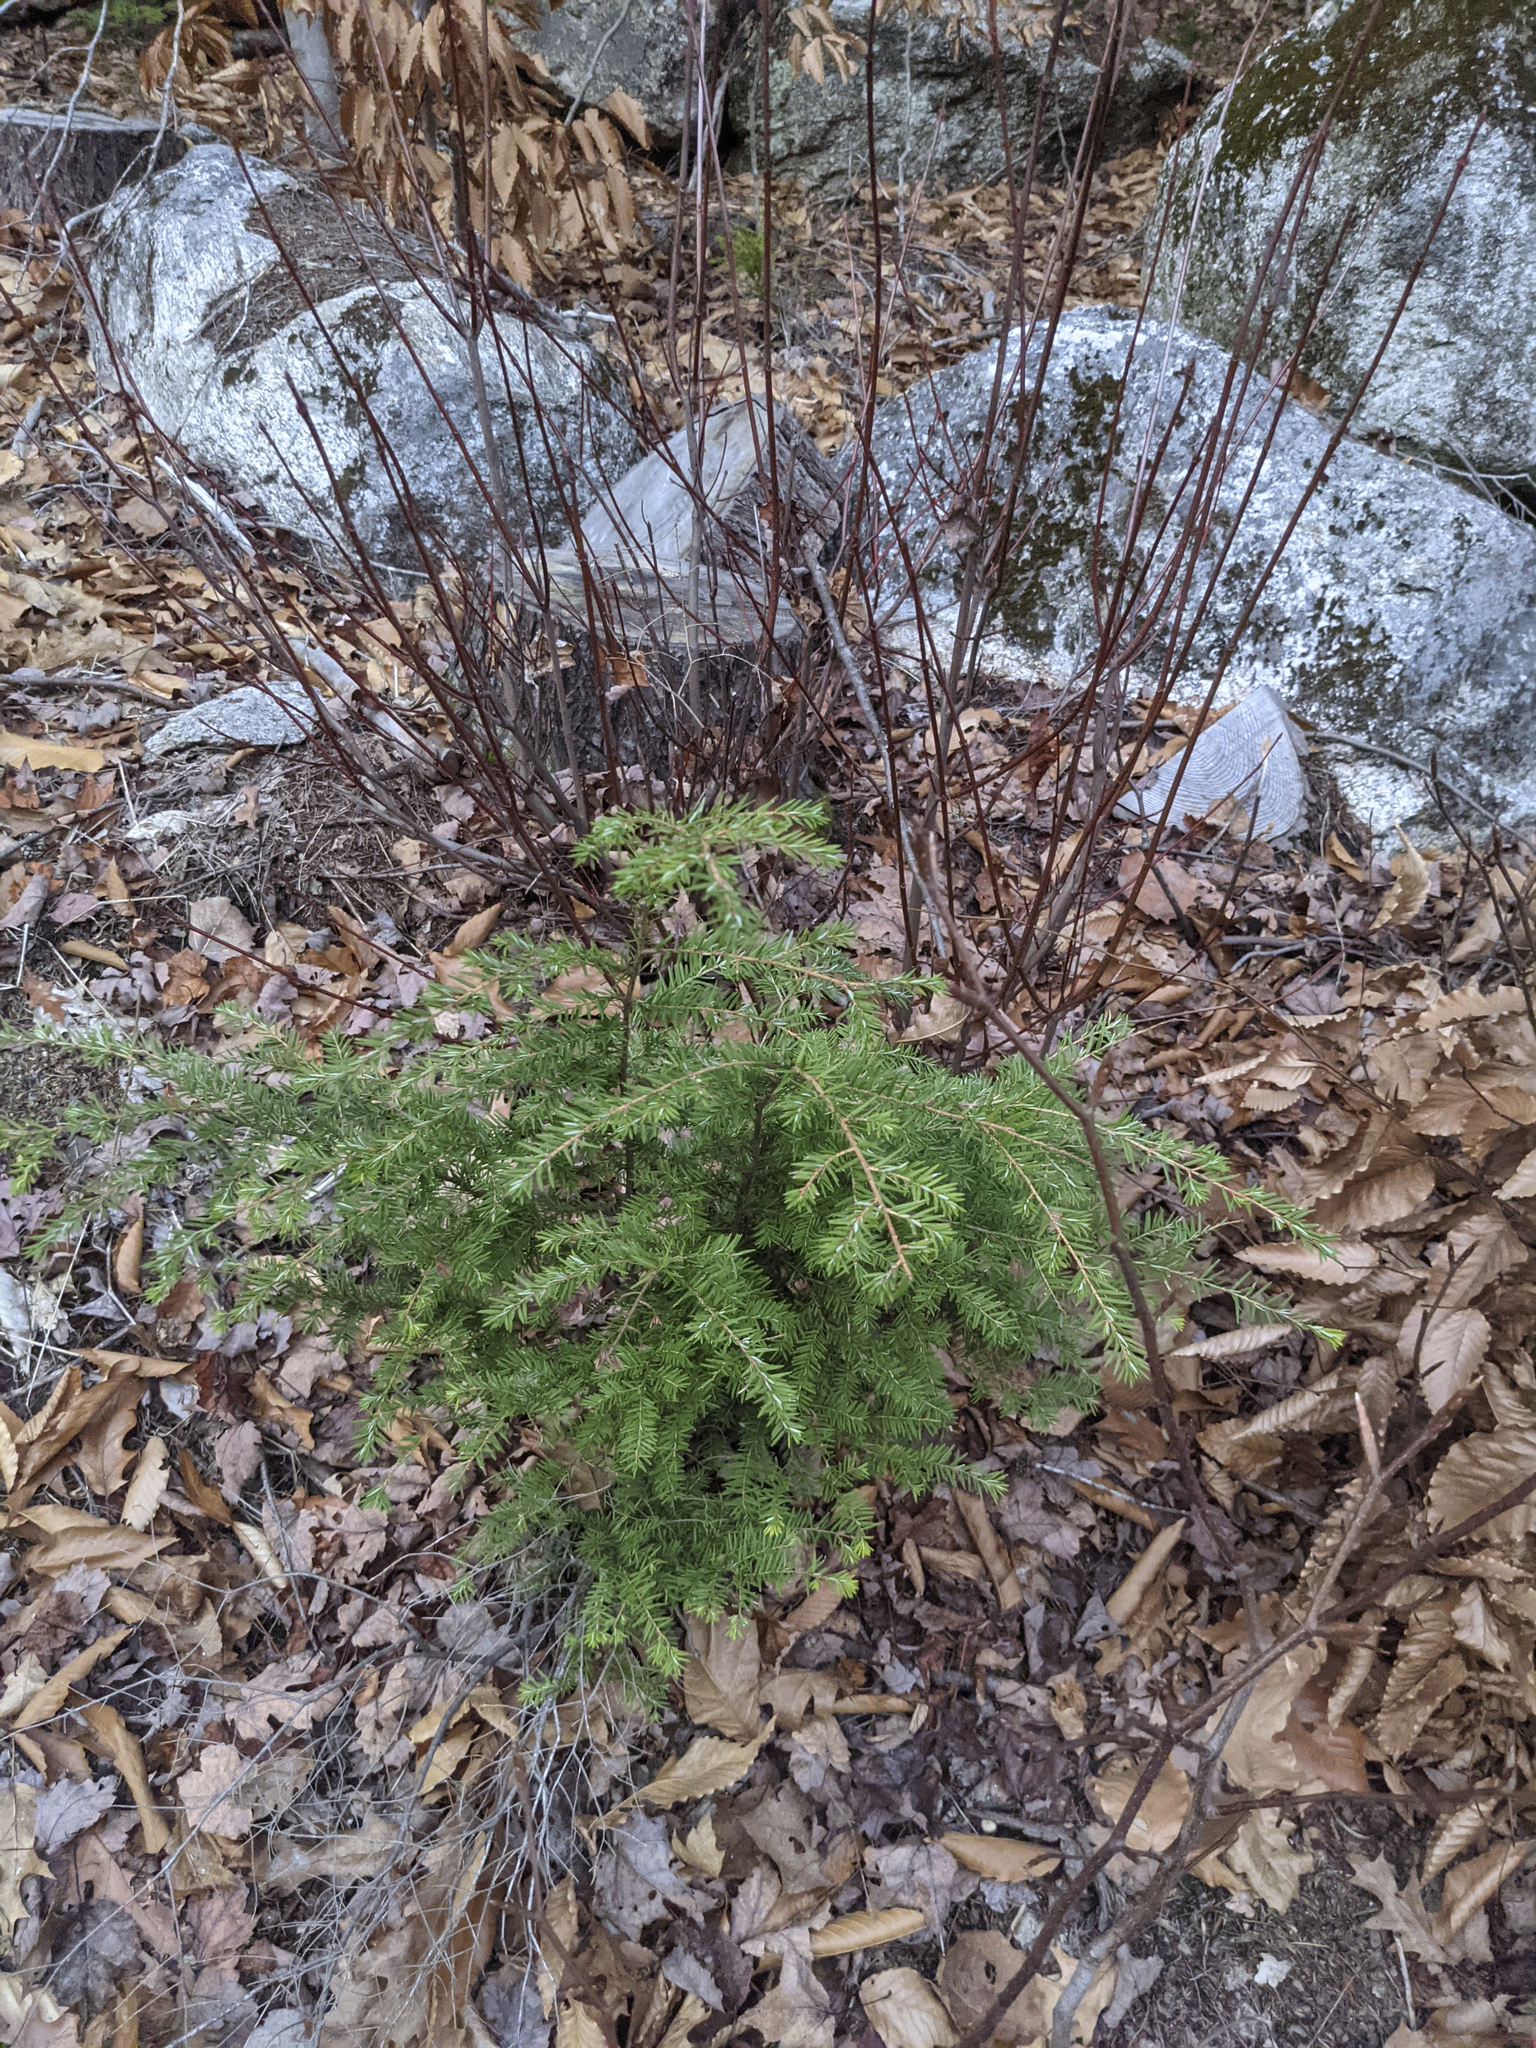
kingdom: Plantae
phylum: Tracheophyta
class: Pinopsida
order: Pinales
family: Pinaceae
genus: Tsuga
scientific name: Tsuga canadensis
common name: Eastern hemlock
